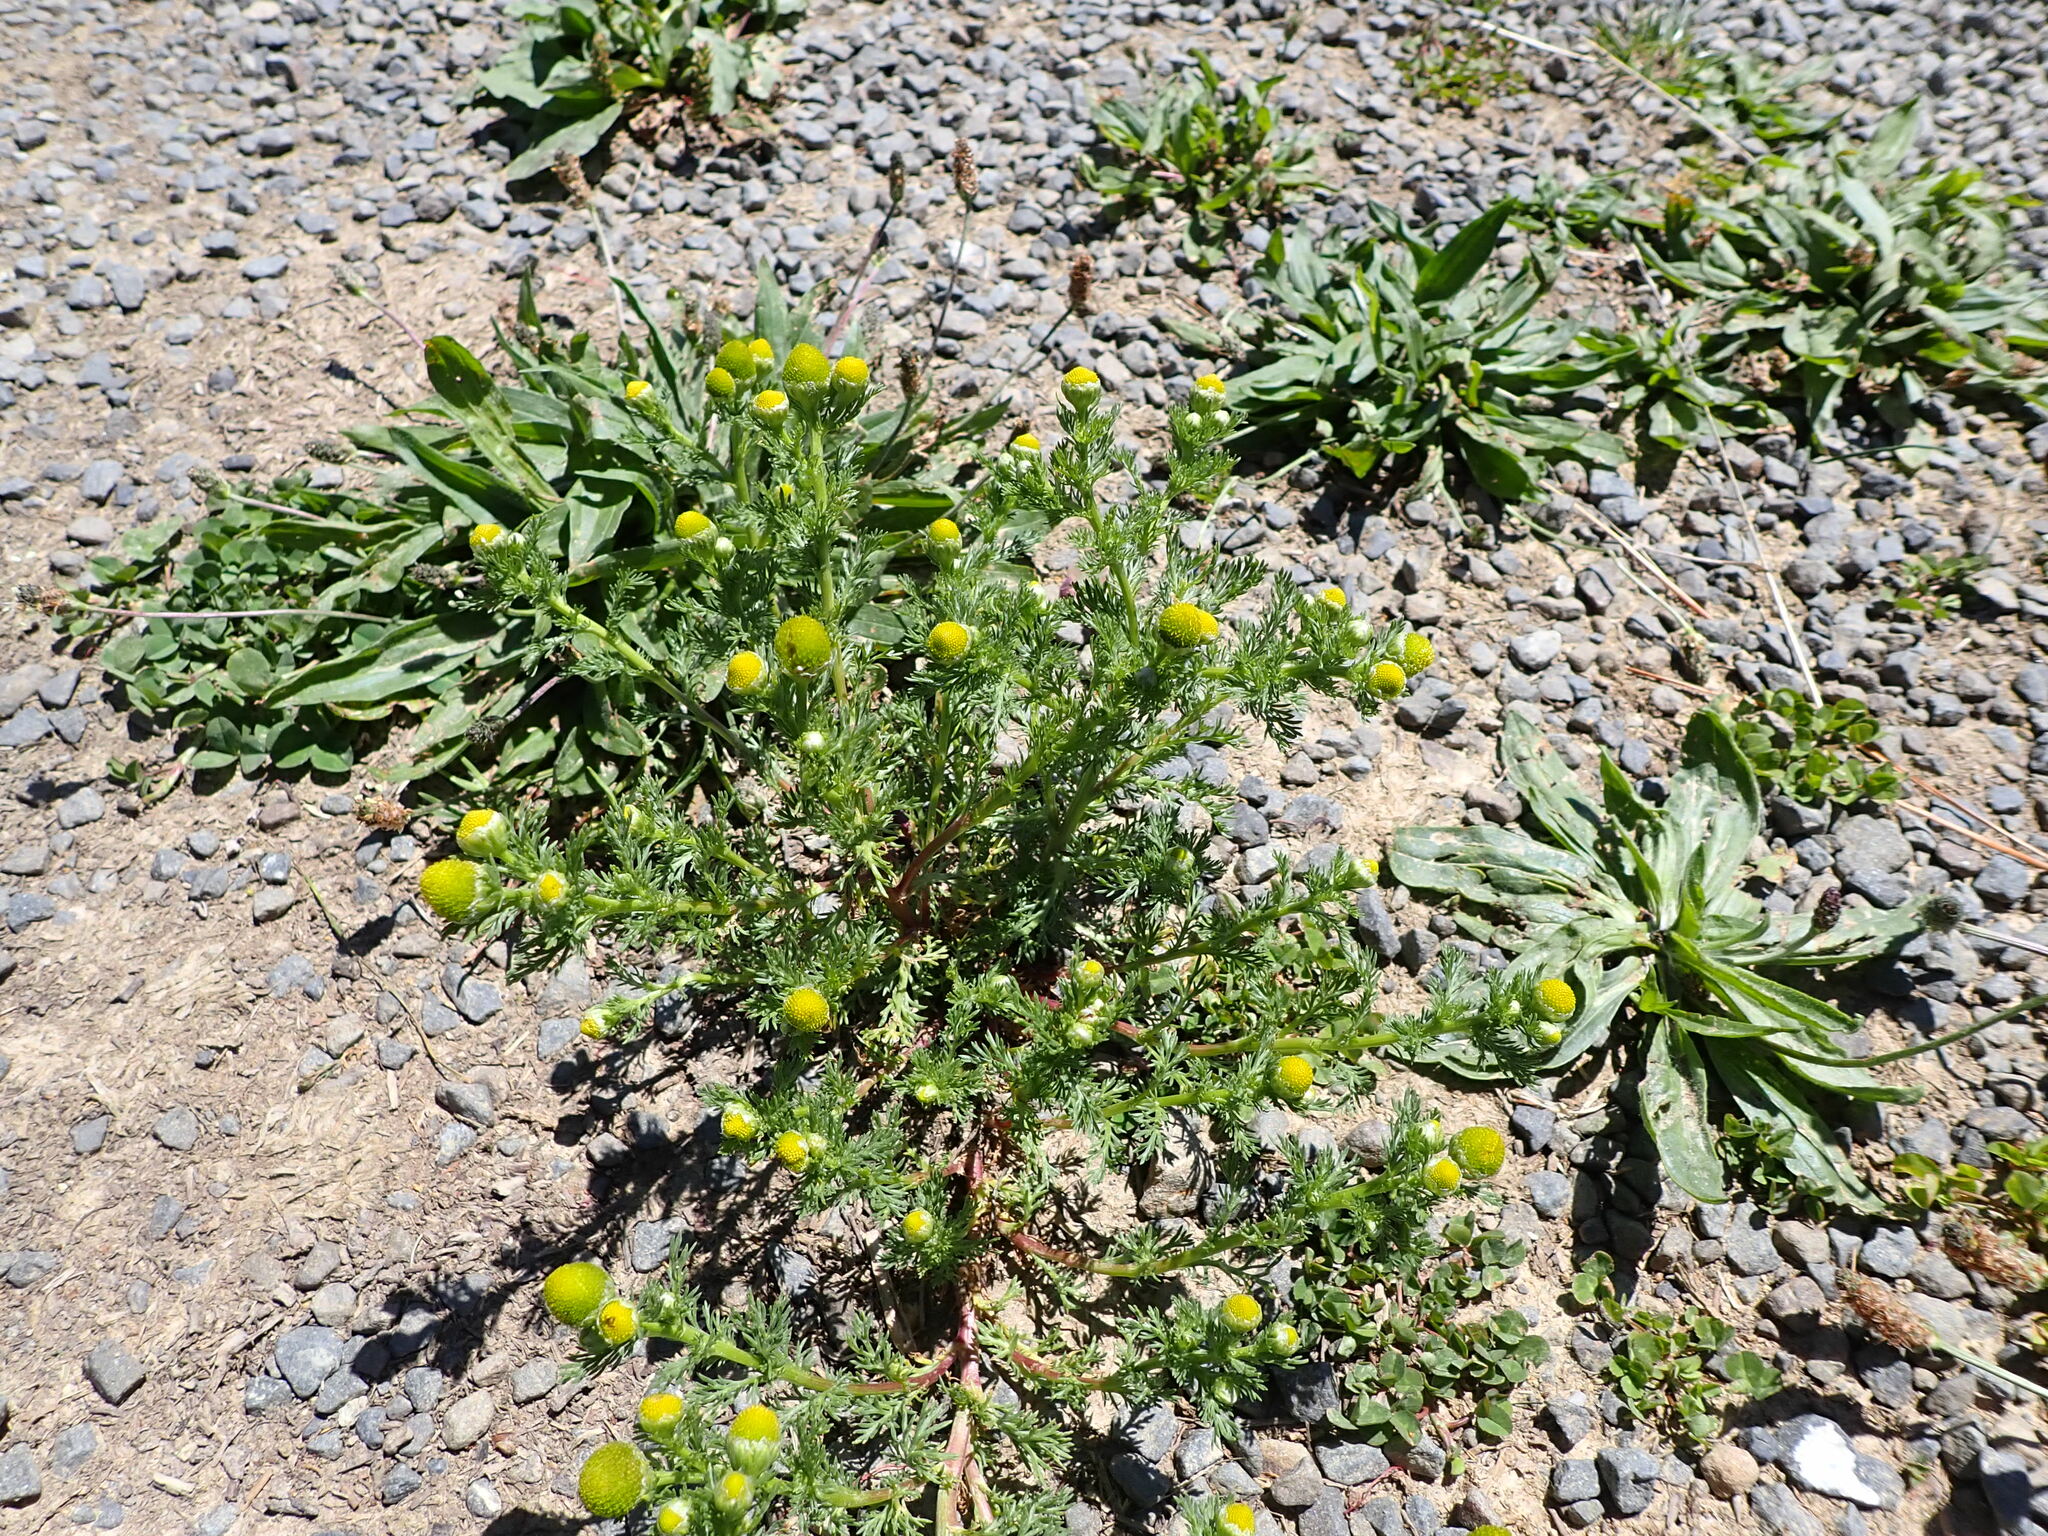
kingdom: Plantae
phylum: Tracheophyta
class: Magnoliopsida
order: Asterales
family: Asteraceae
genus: Matricaria
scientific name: Matricaria discoidea
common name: Disc mayweed
